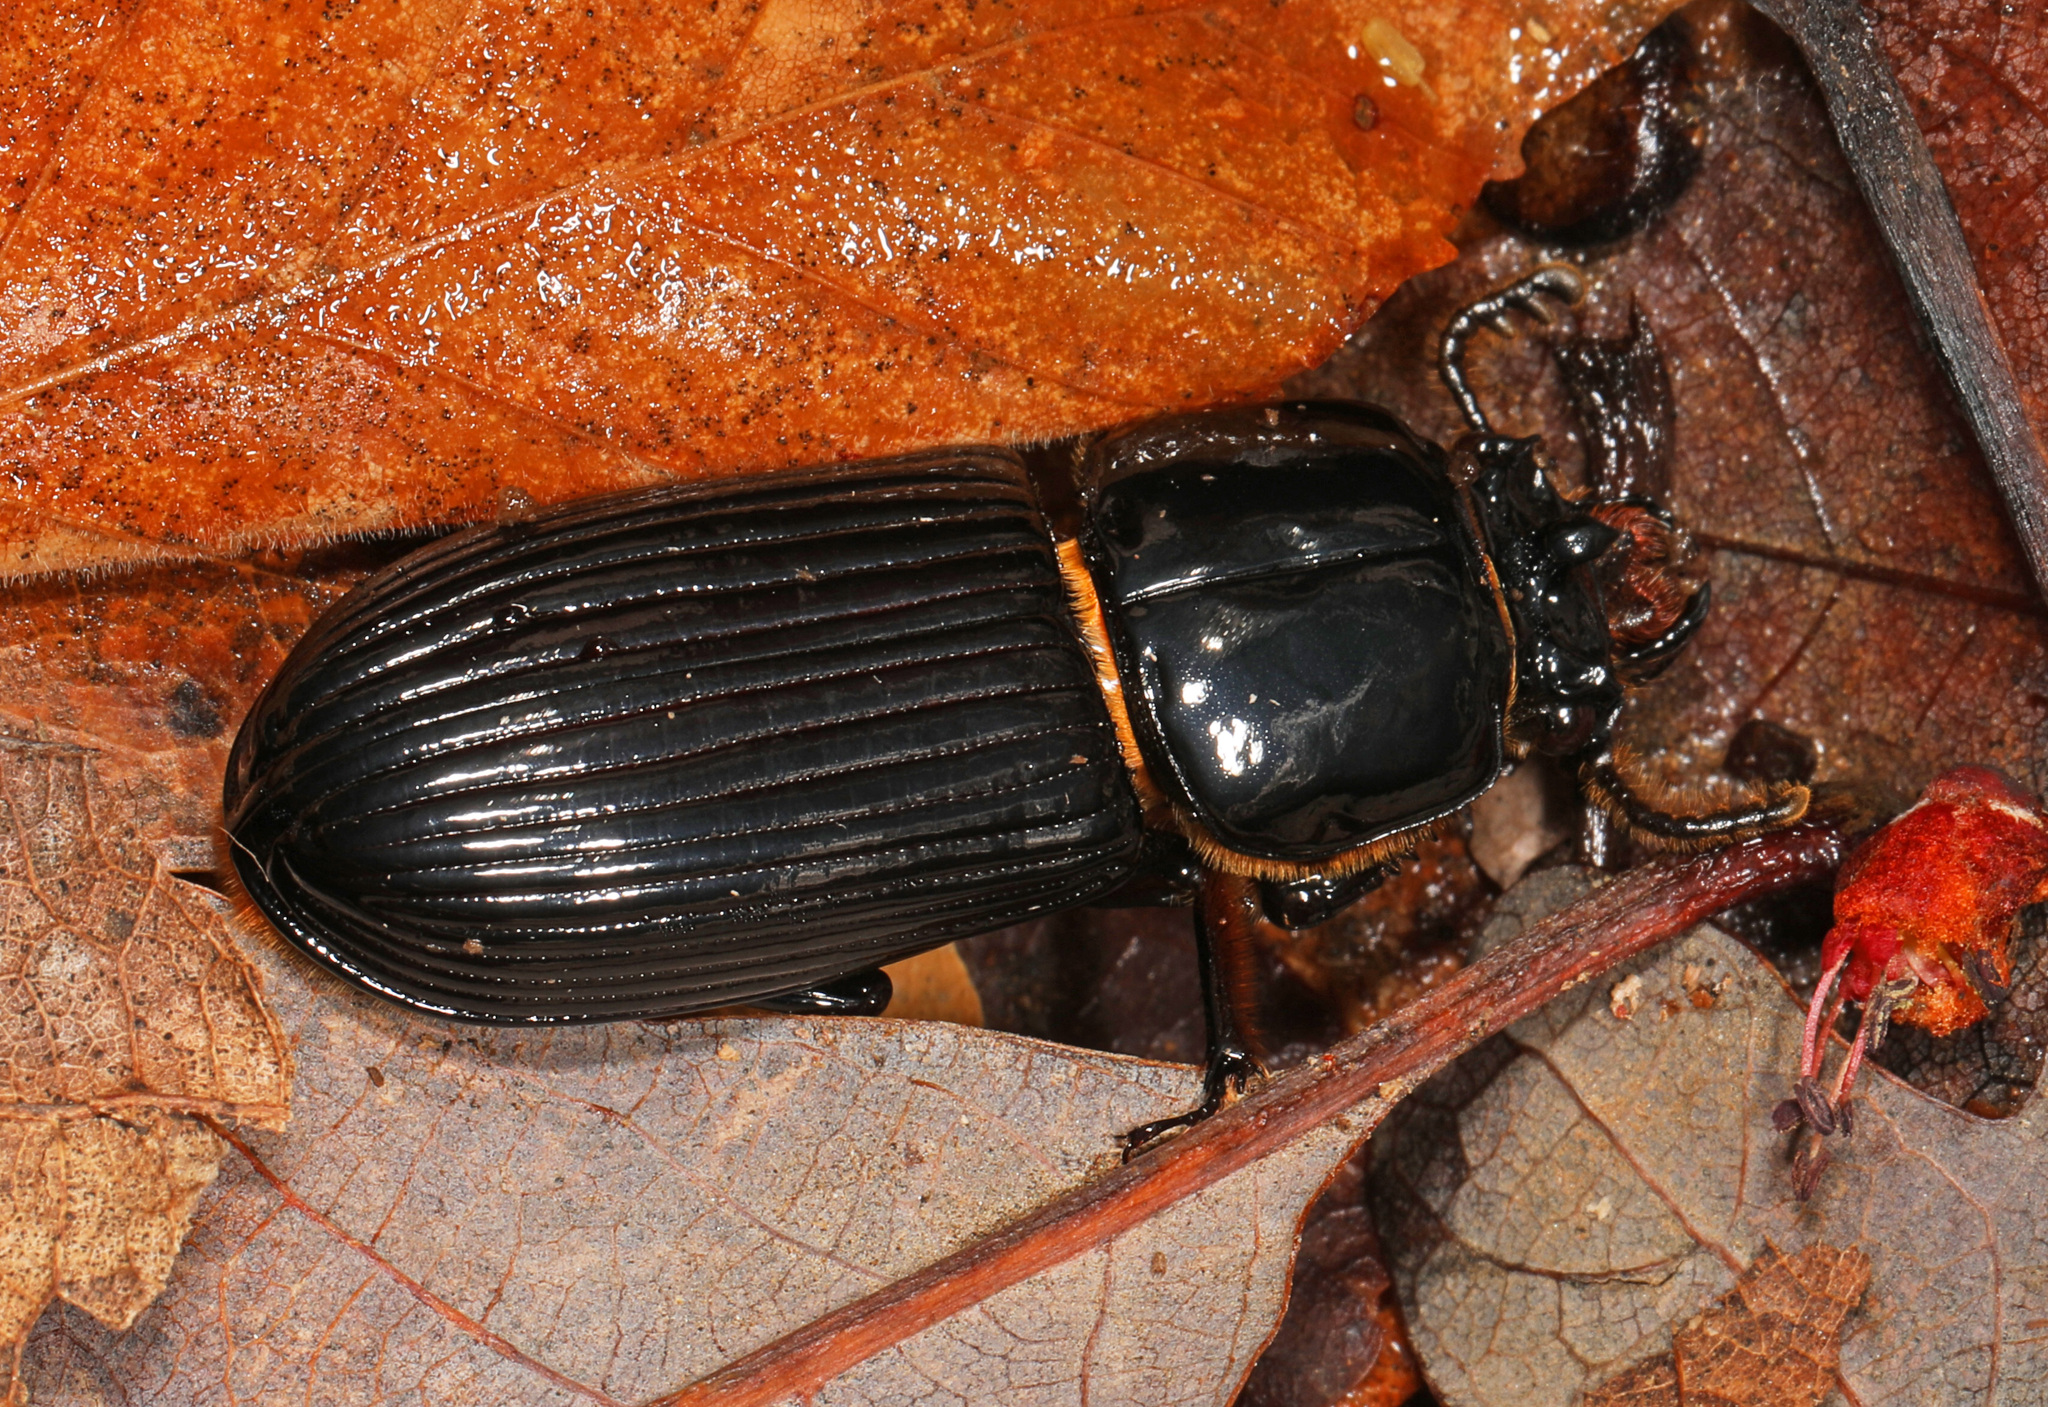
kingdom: Animalia
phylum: Arthropoda
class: Insecta
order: Coleoptera
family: Passalidae
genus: Odontotaenius
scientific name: Odontotaenius disjunctus
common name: Patent leather beetle
